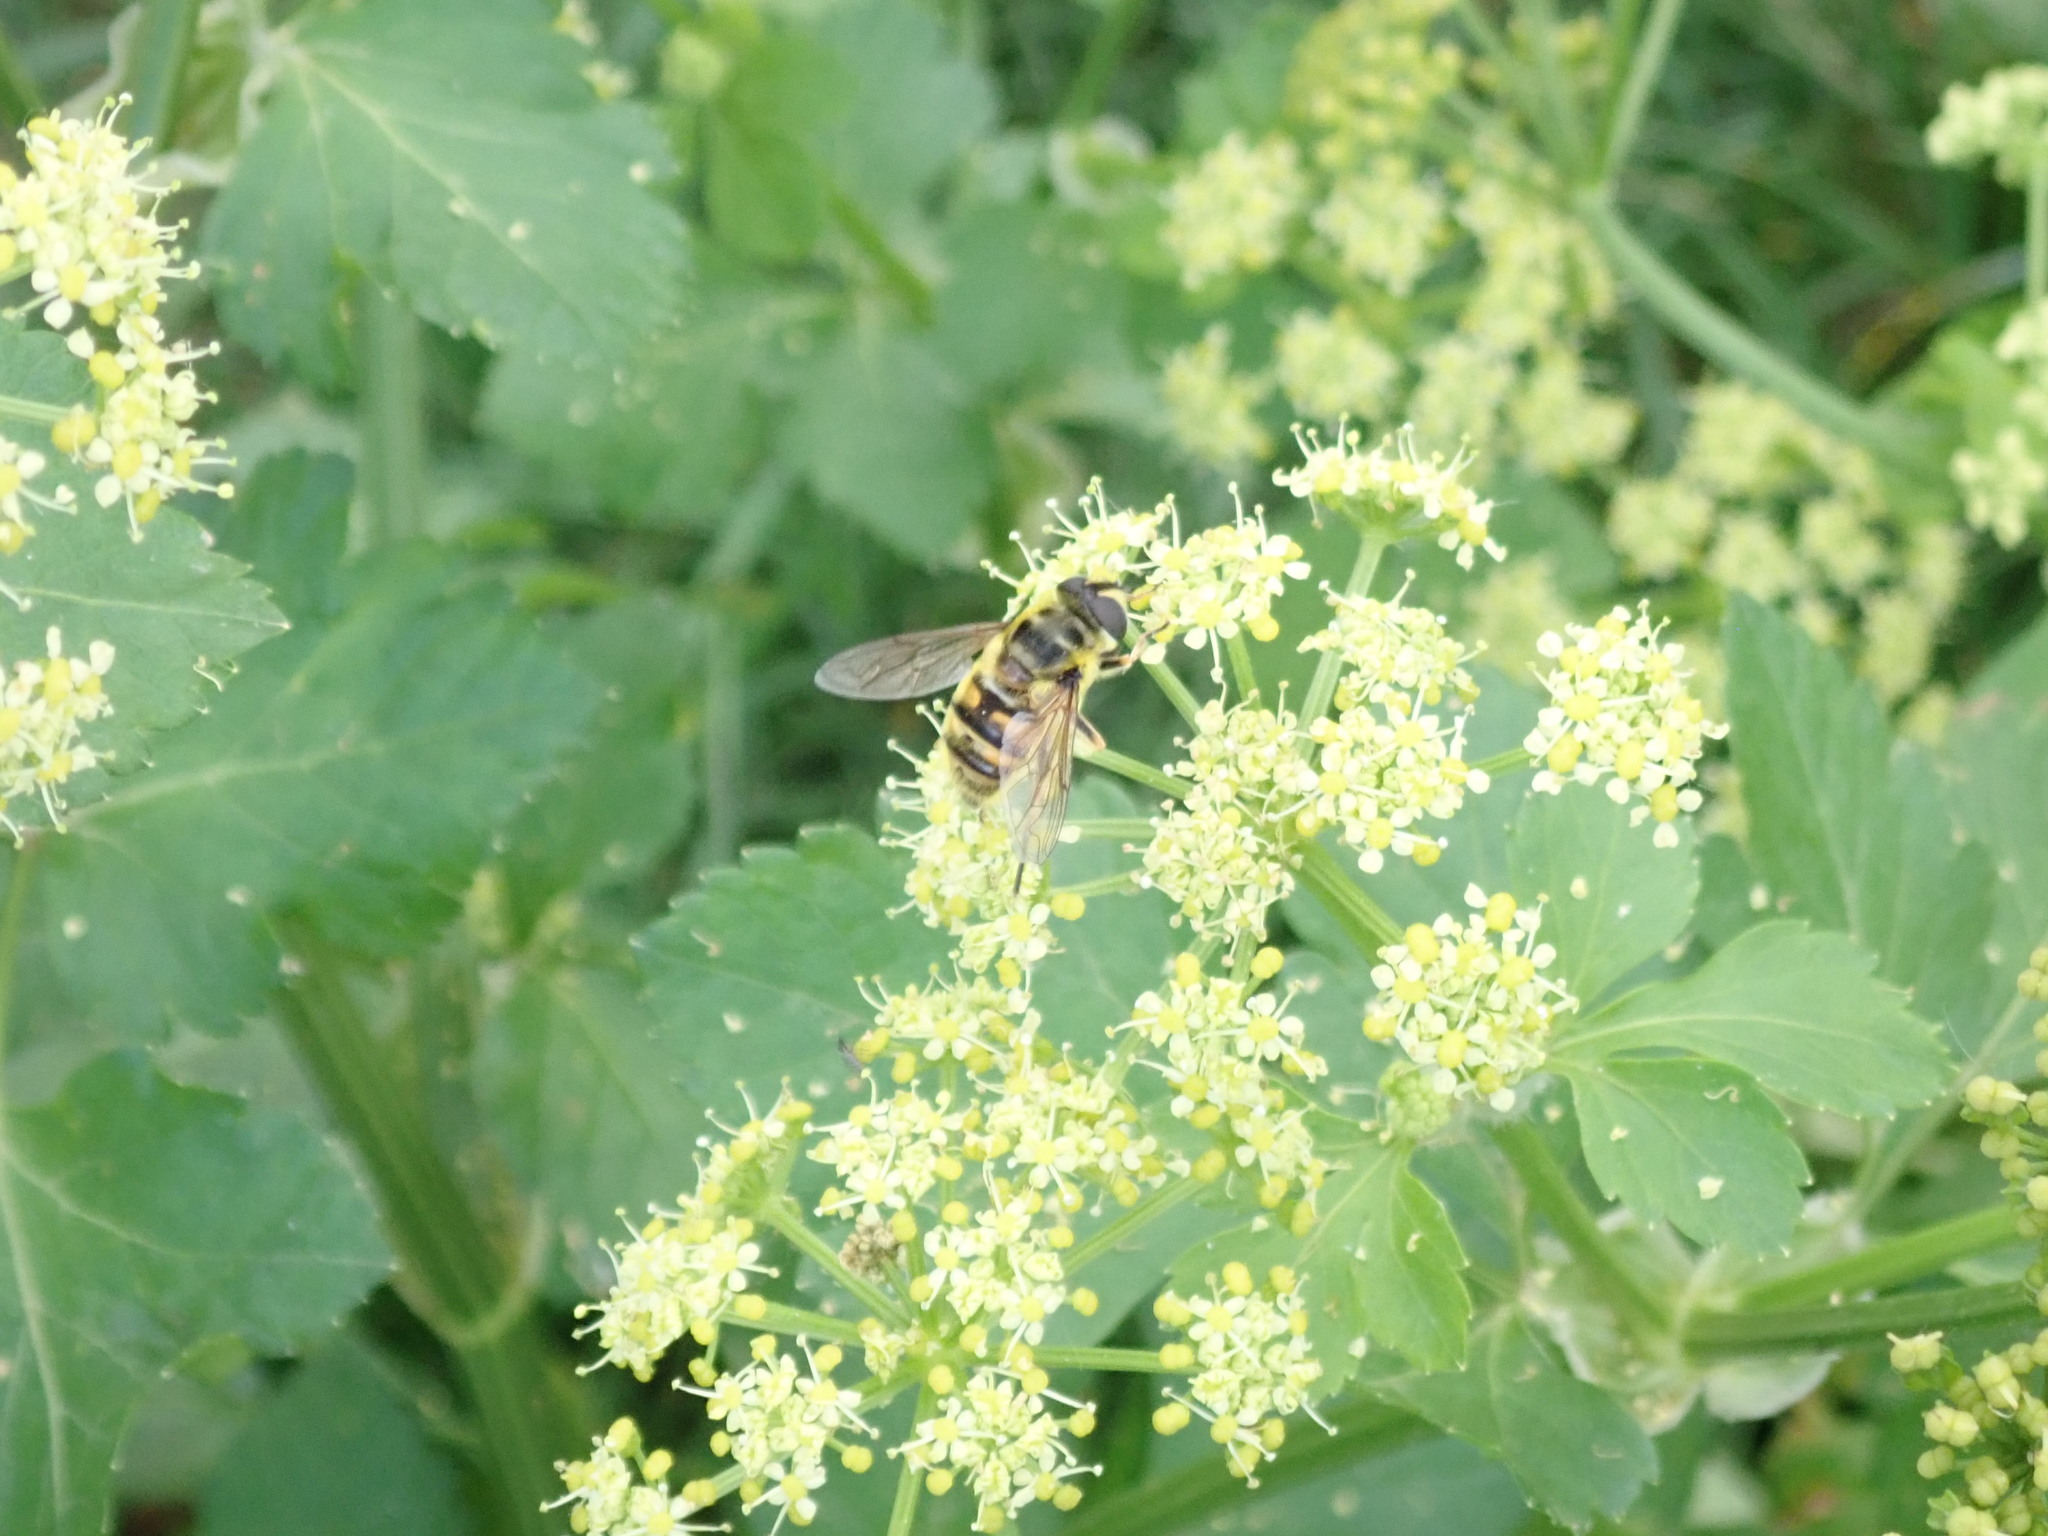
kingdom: Animalia
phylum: Arthropoda
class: Insecta
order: Diptera
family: Syrphidae
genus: Myathropa
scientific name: Myathropa florea
